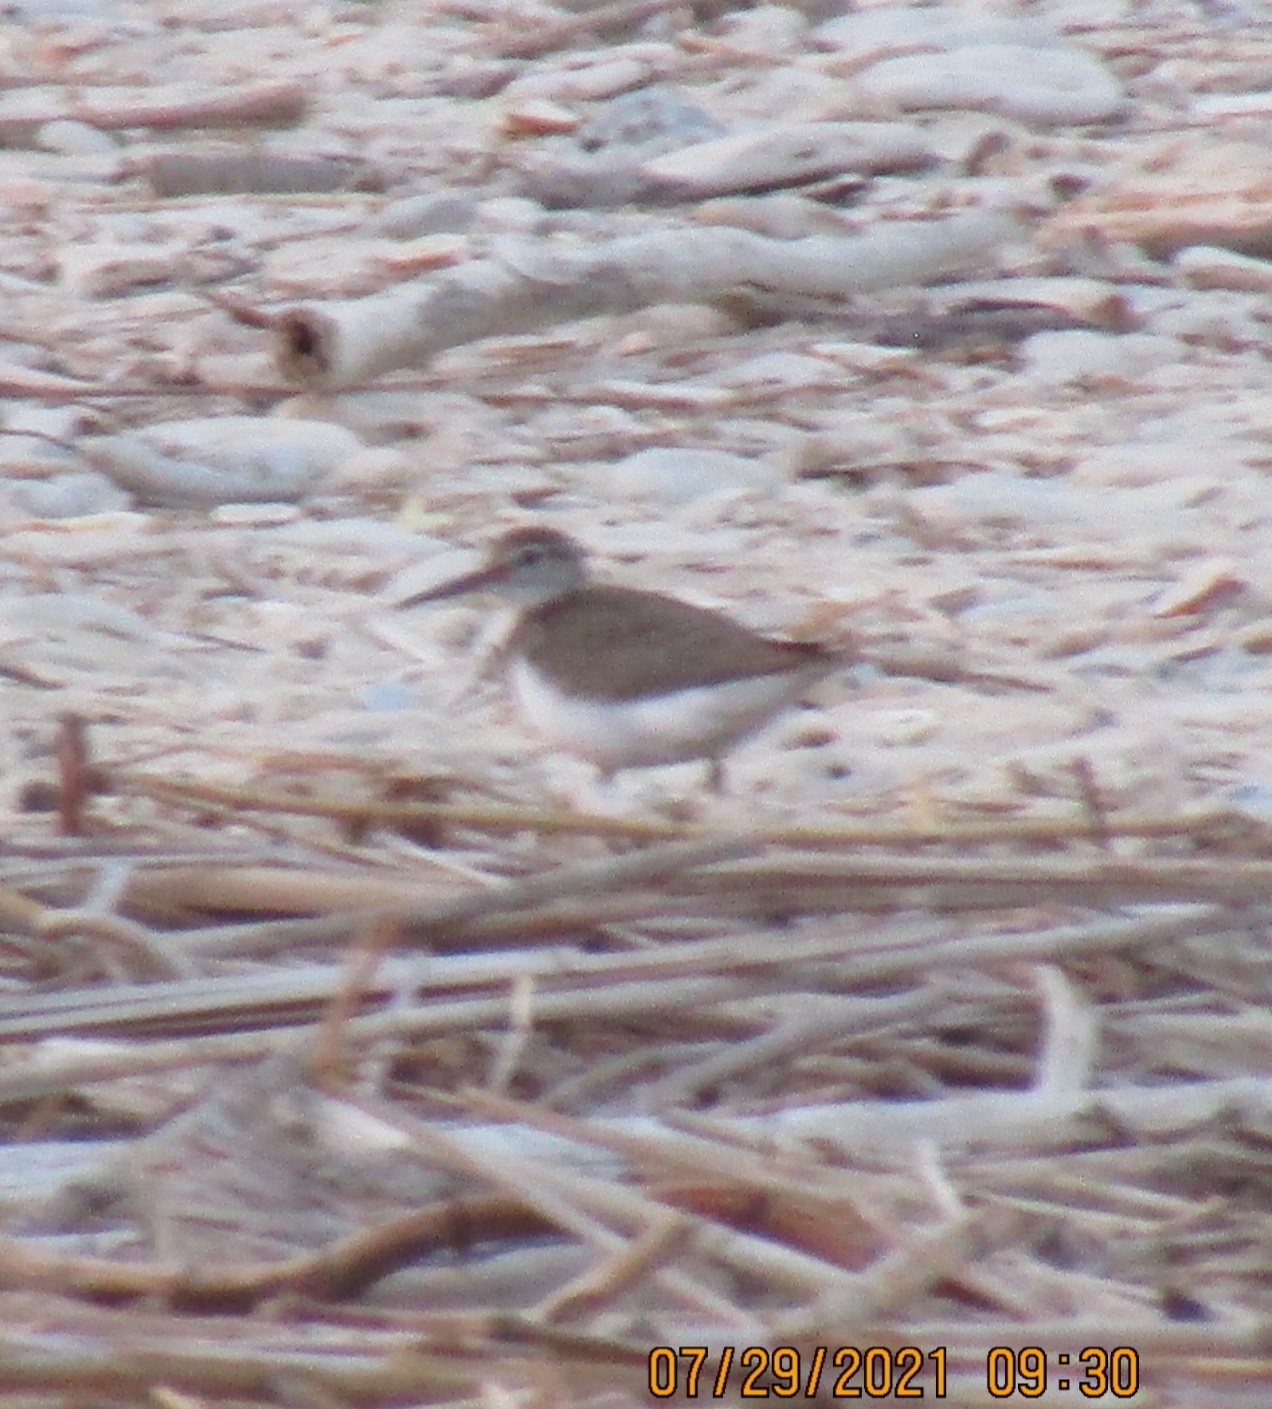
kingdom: Animalia
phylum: Chordata
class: Aves
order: Charadriiformes
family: Scolopacidae
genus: Actitis
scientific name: Actitis hypoleucos
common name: Common sandpiper
